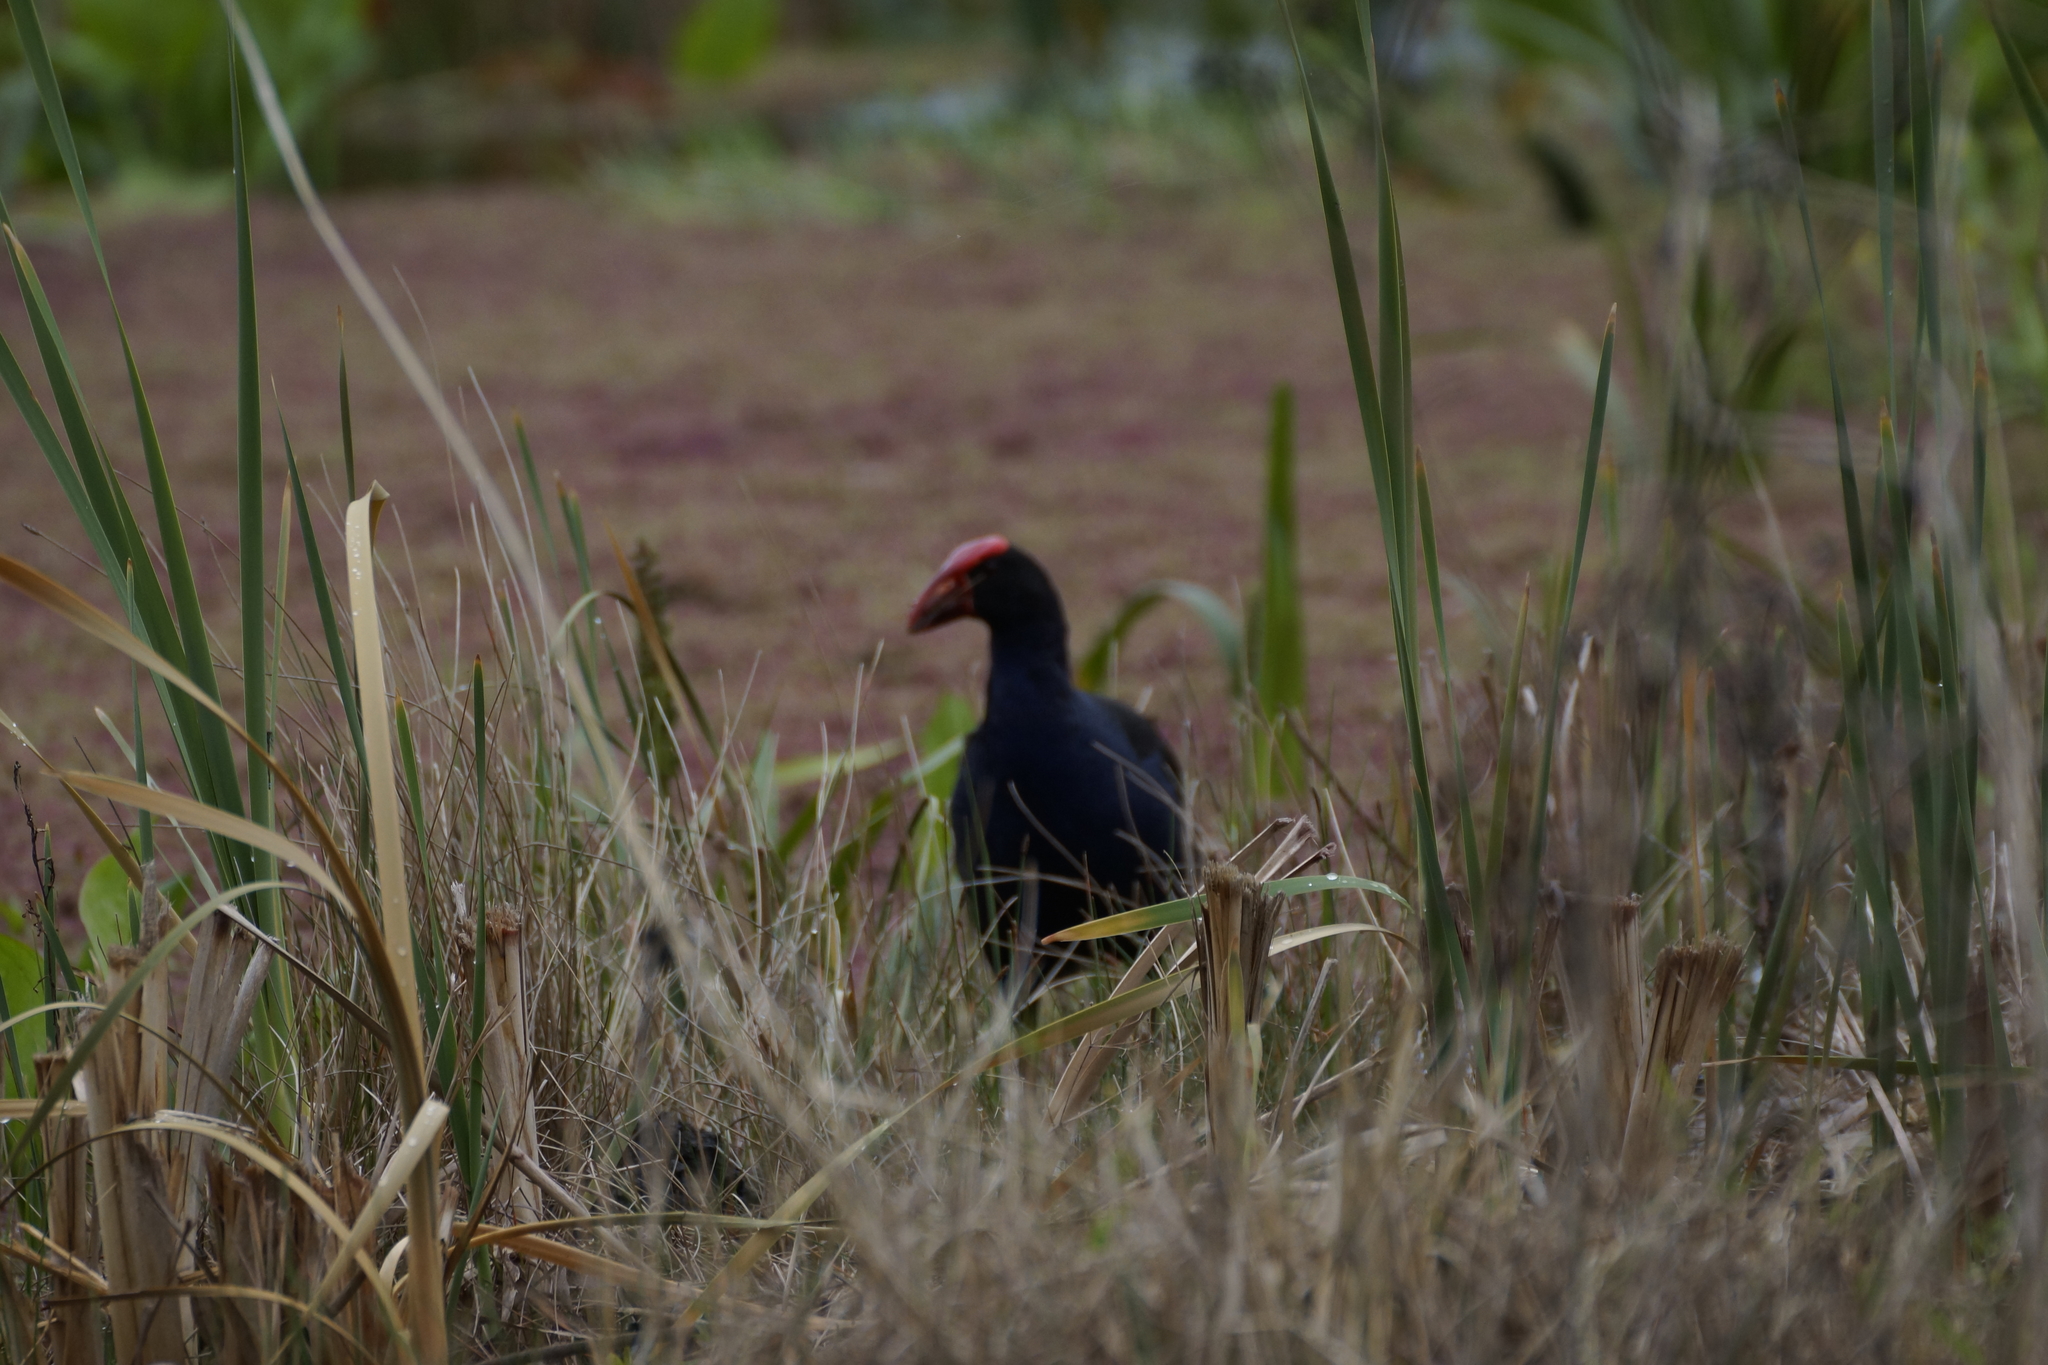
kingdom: Animalia
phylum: Chordata
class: Aves
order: Gruiformes
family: Rallidae
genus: Porphyrio
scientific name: Porphyrio melanotus
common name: Australasian swamphen
